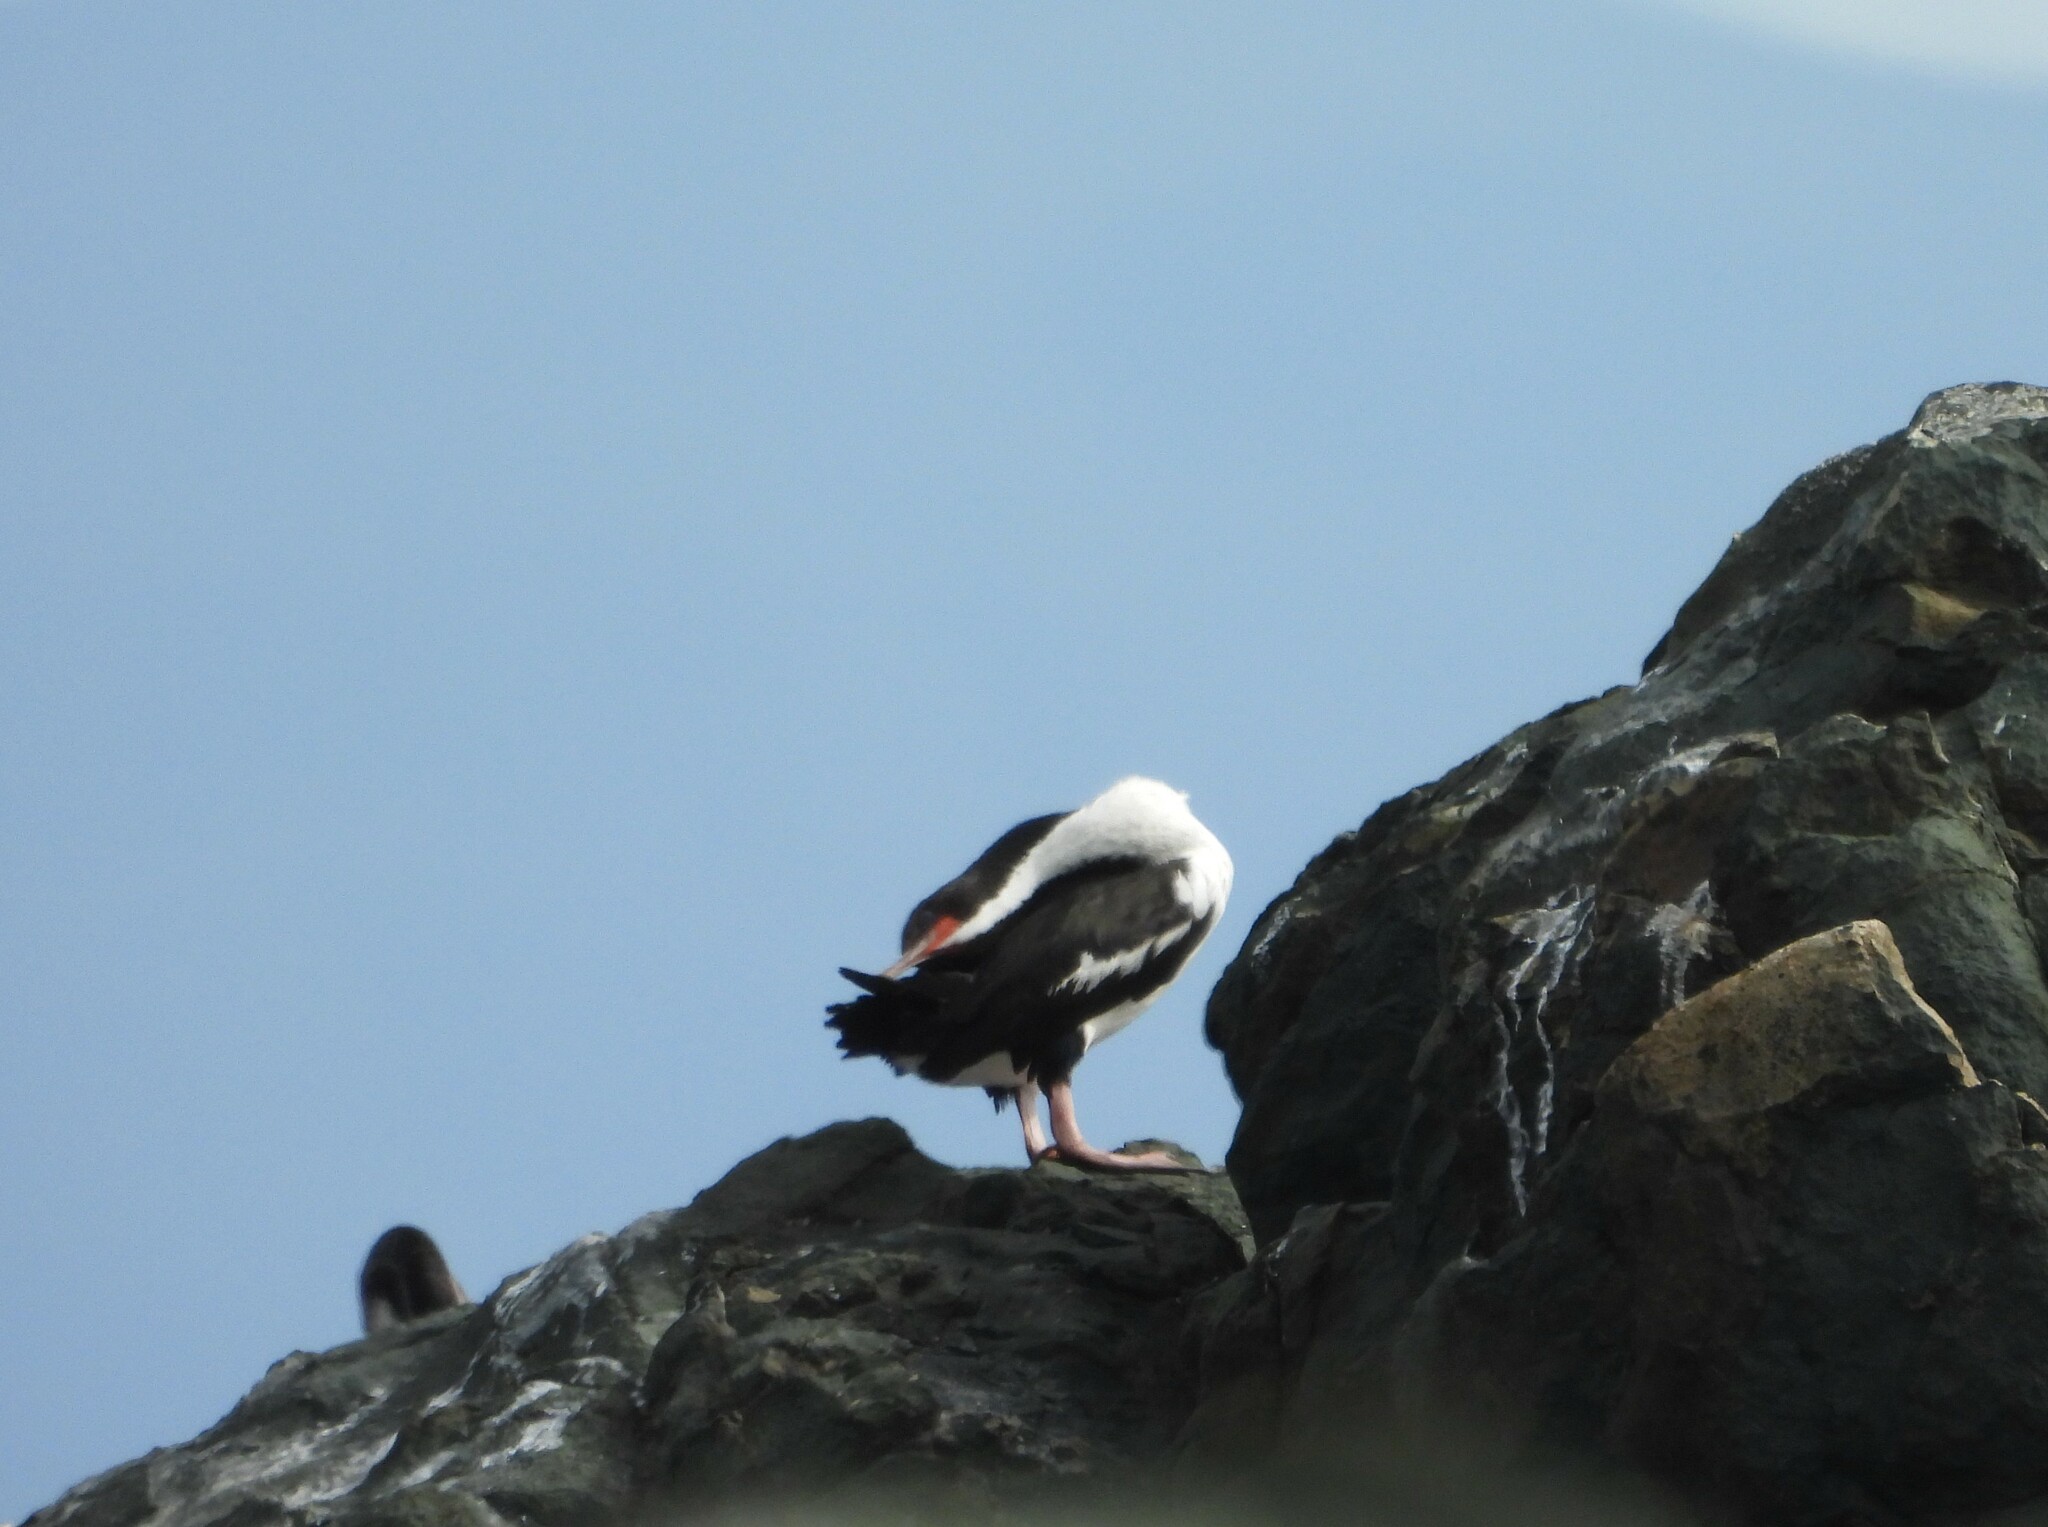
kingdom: Animalia
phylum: Chordata
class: Aves
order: Suliformes
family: Phalacrocoracidae
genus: Leucocarbo
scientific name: Leucocarbo chalconotus
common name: Stewart shag
